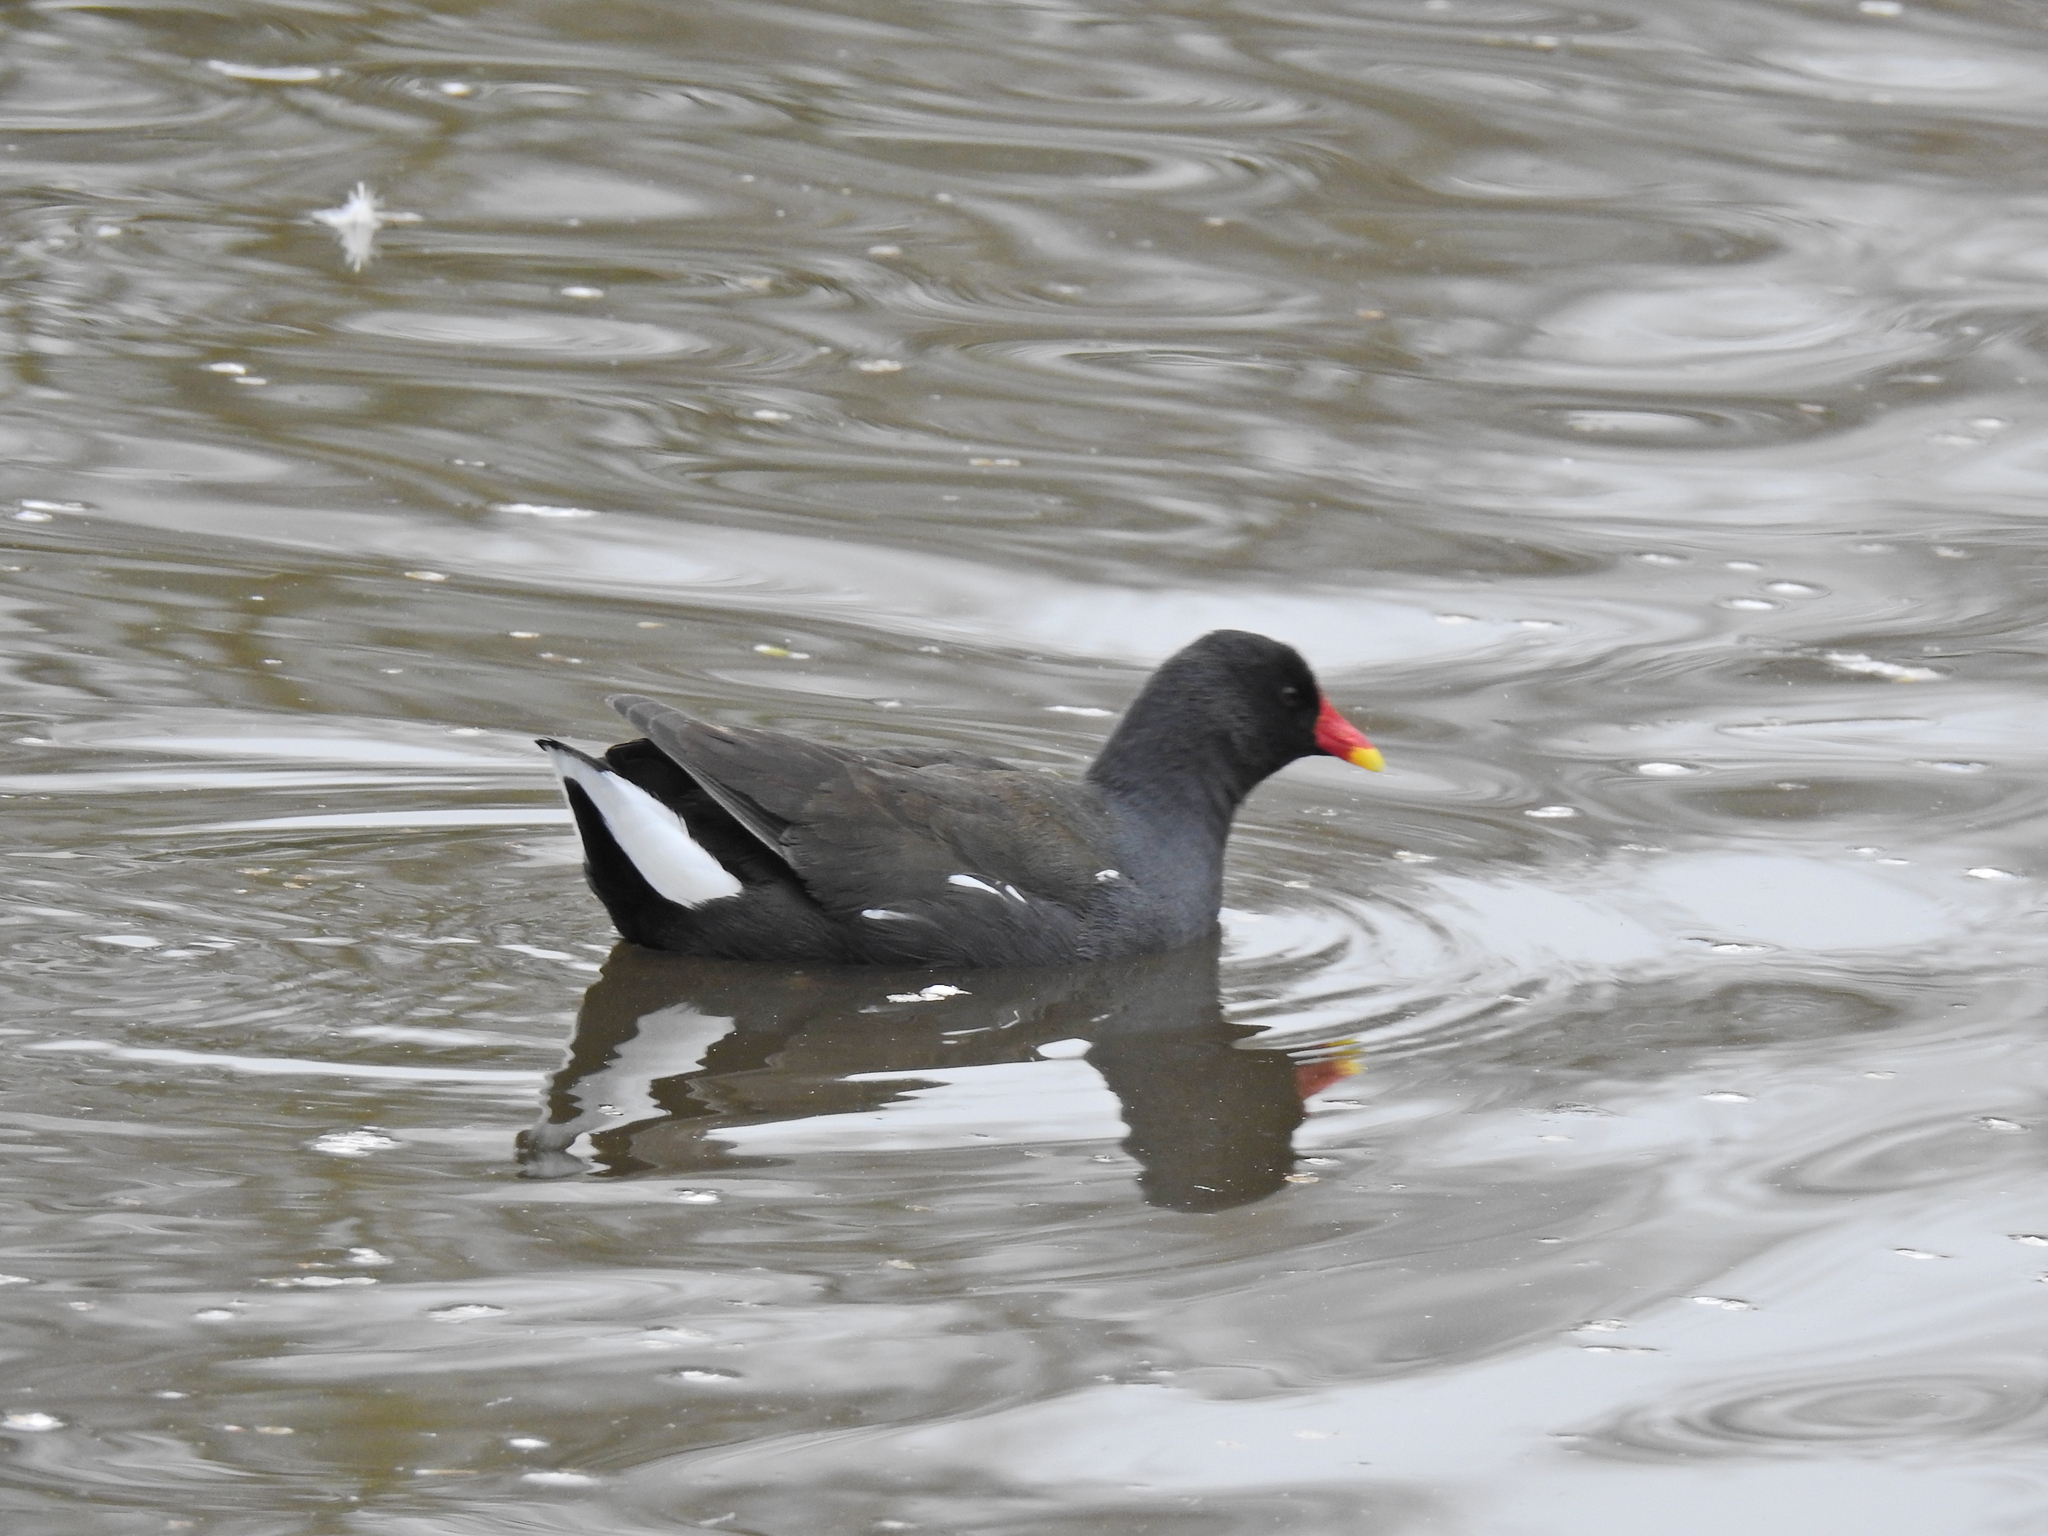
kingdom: Animalia
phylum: Chordata
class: Aves
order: Gruiformes
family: Rallidae
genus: Gallinula
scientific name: Gallinula chloropus
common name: Common moorhen
